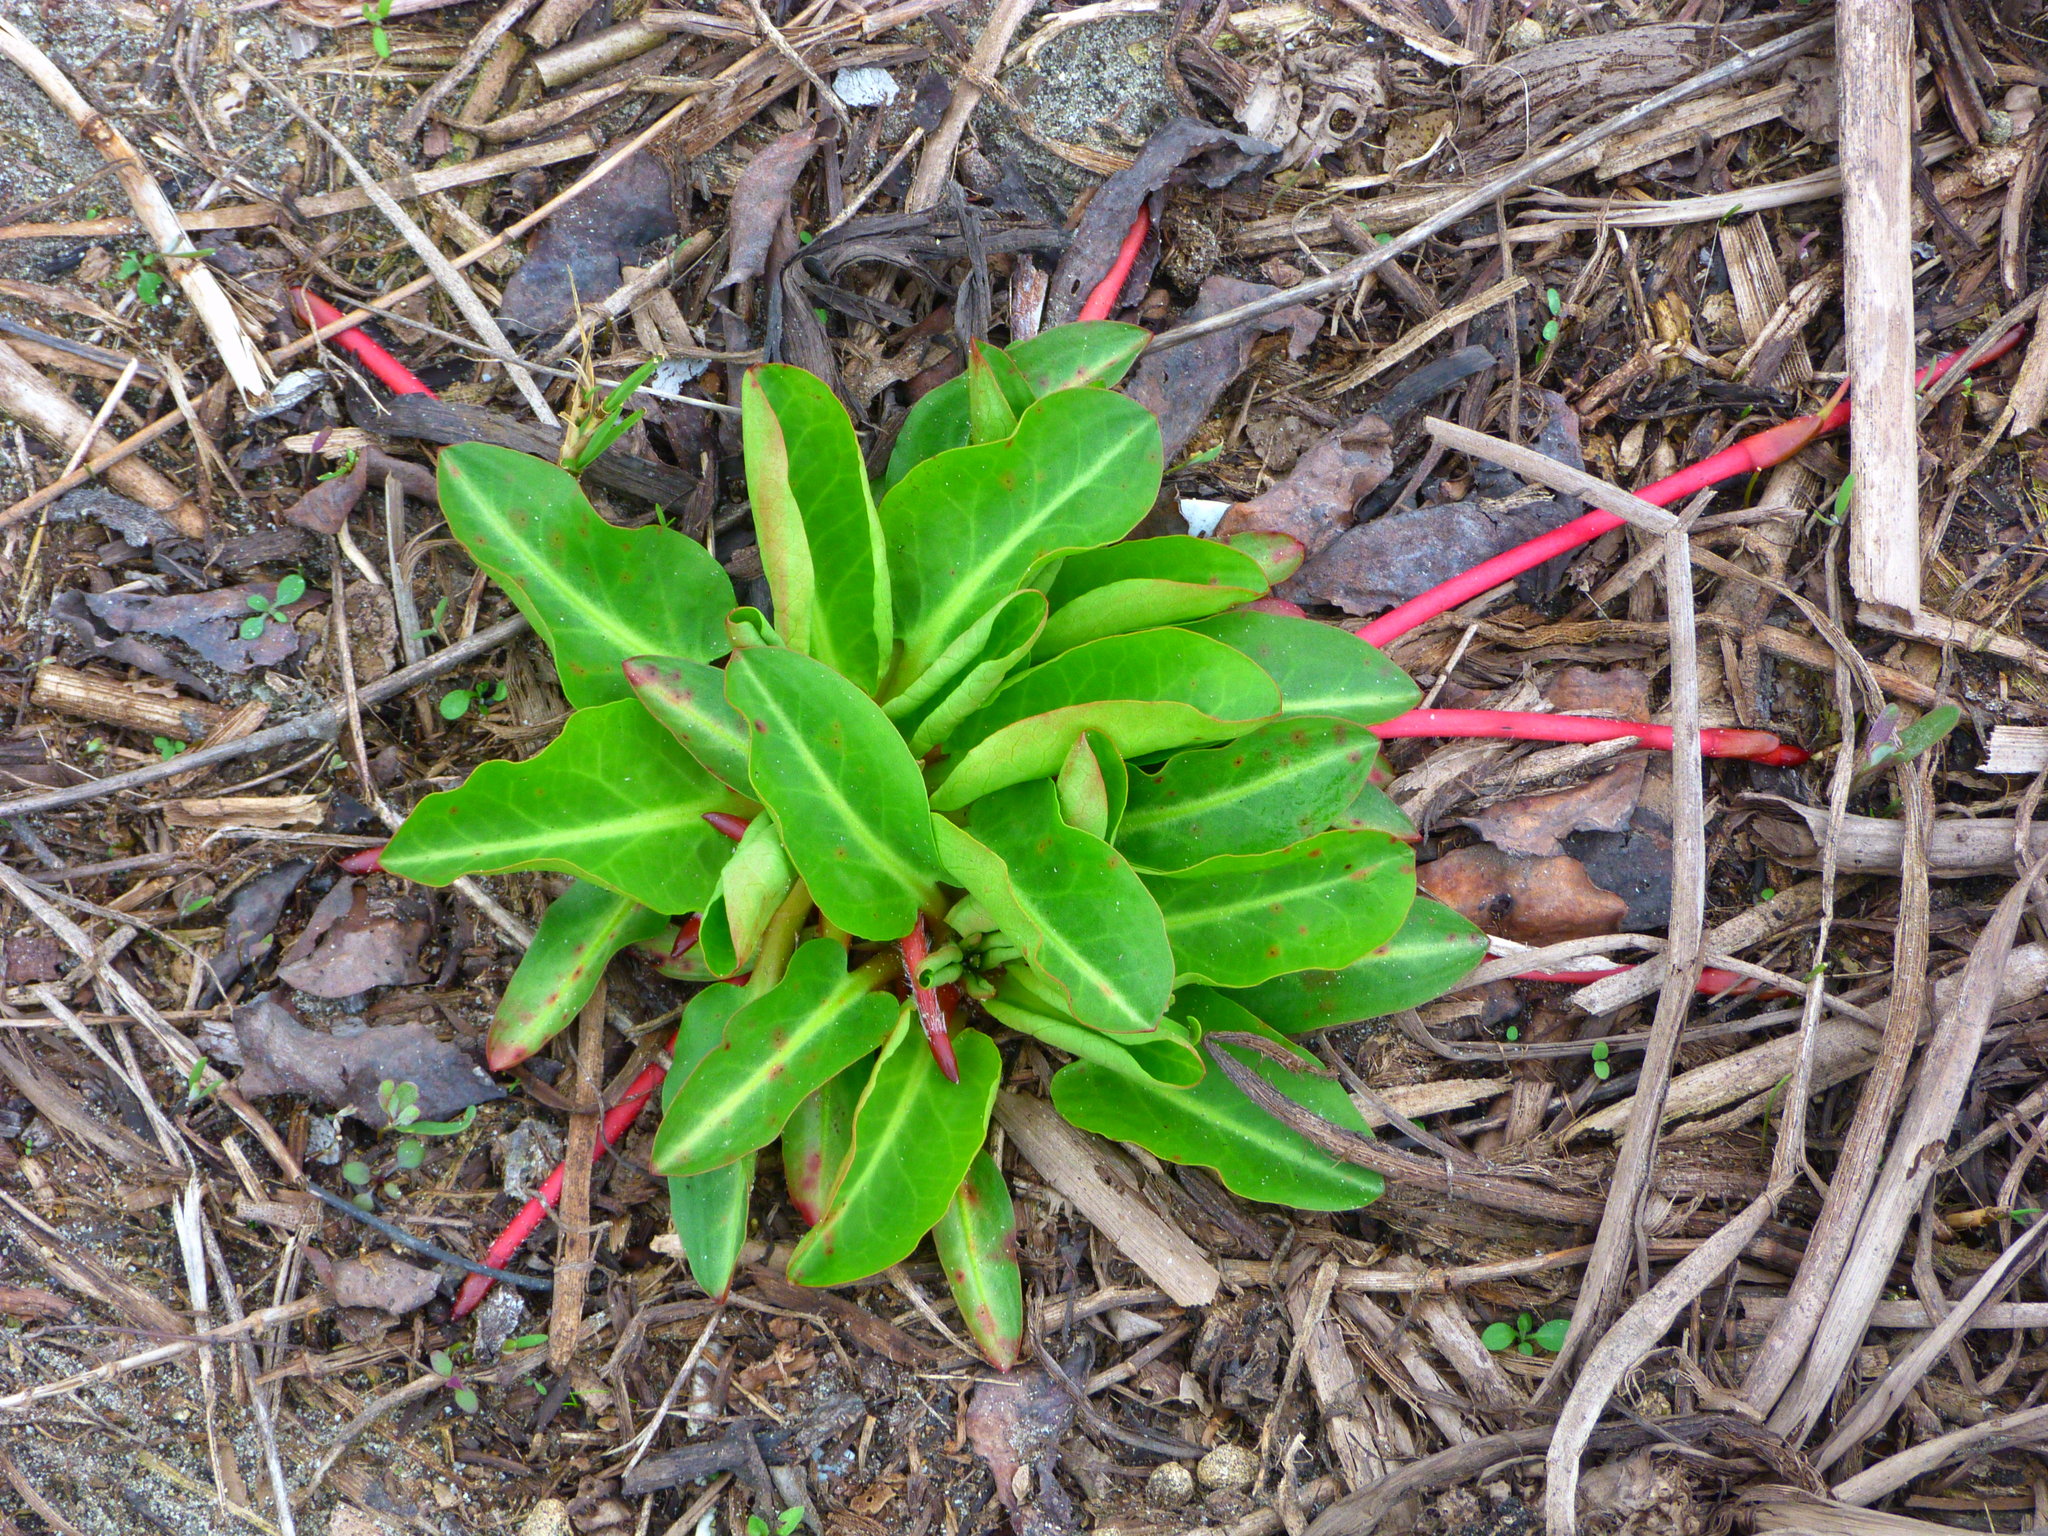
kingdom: Plantae
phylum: Tracheophyta
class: Magnoliopsida
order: Piperales
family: Saururaceae
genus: Anemopsis
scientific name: Anemopsis californica
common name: Apache-beads
